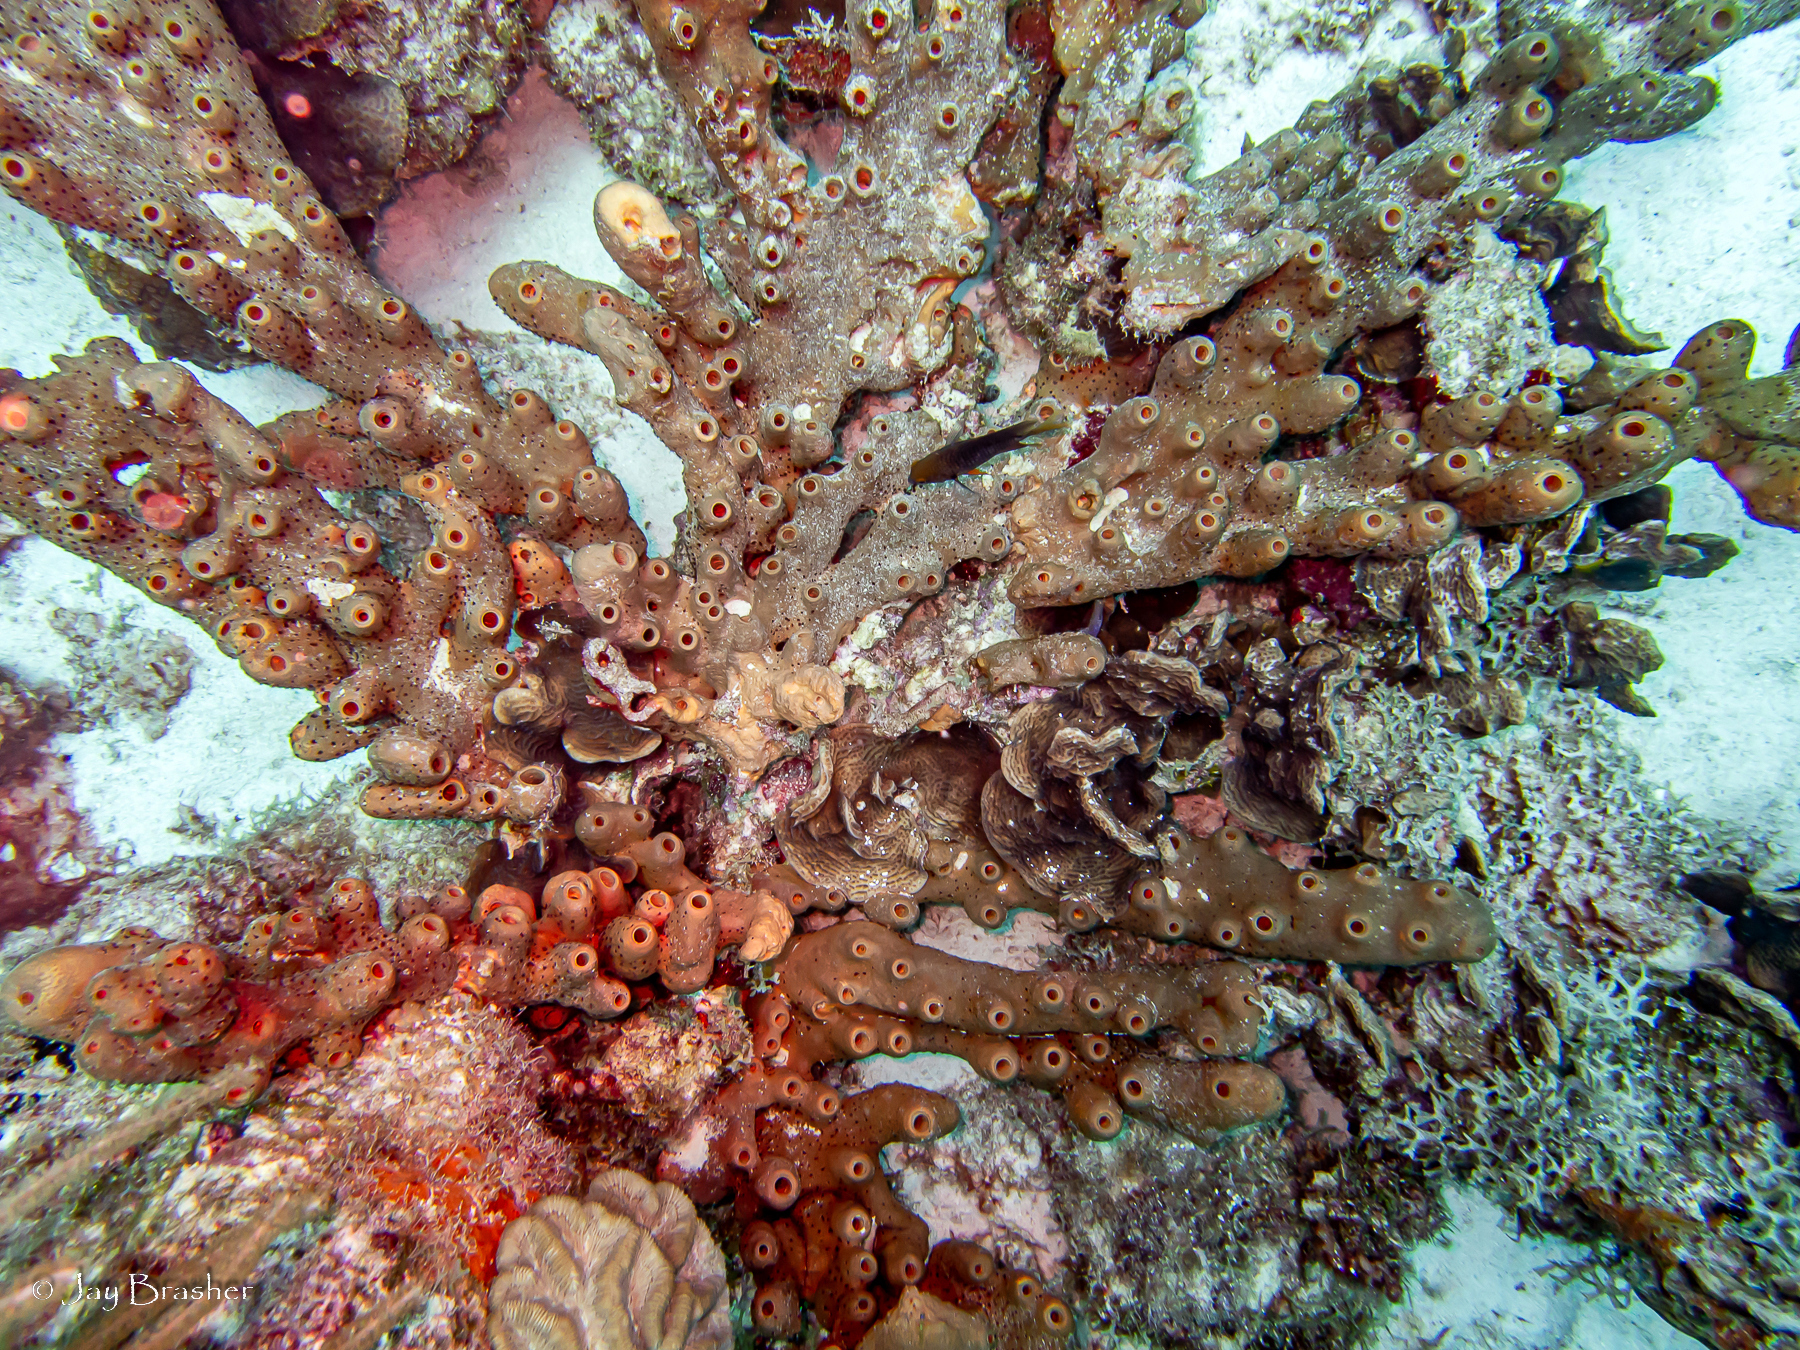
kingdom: Animalia
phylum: Cnidaria
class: Anthozoa
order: Zoantharia
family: Parazoanthidae
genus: Bergia
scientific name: Bergia puertoricense
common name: Maroon sponge zoanthid
